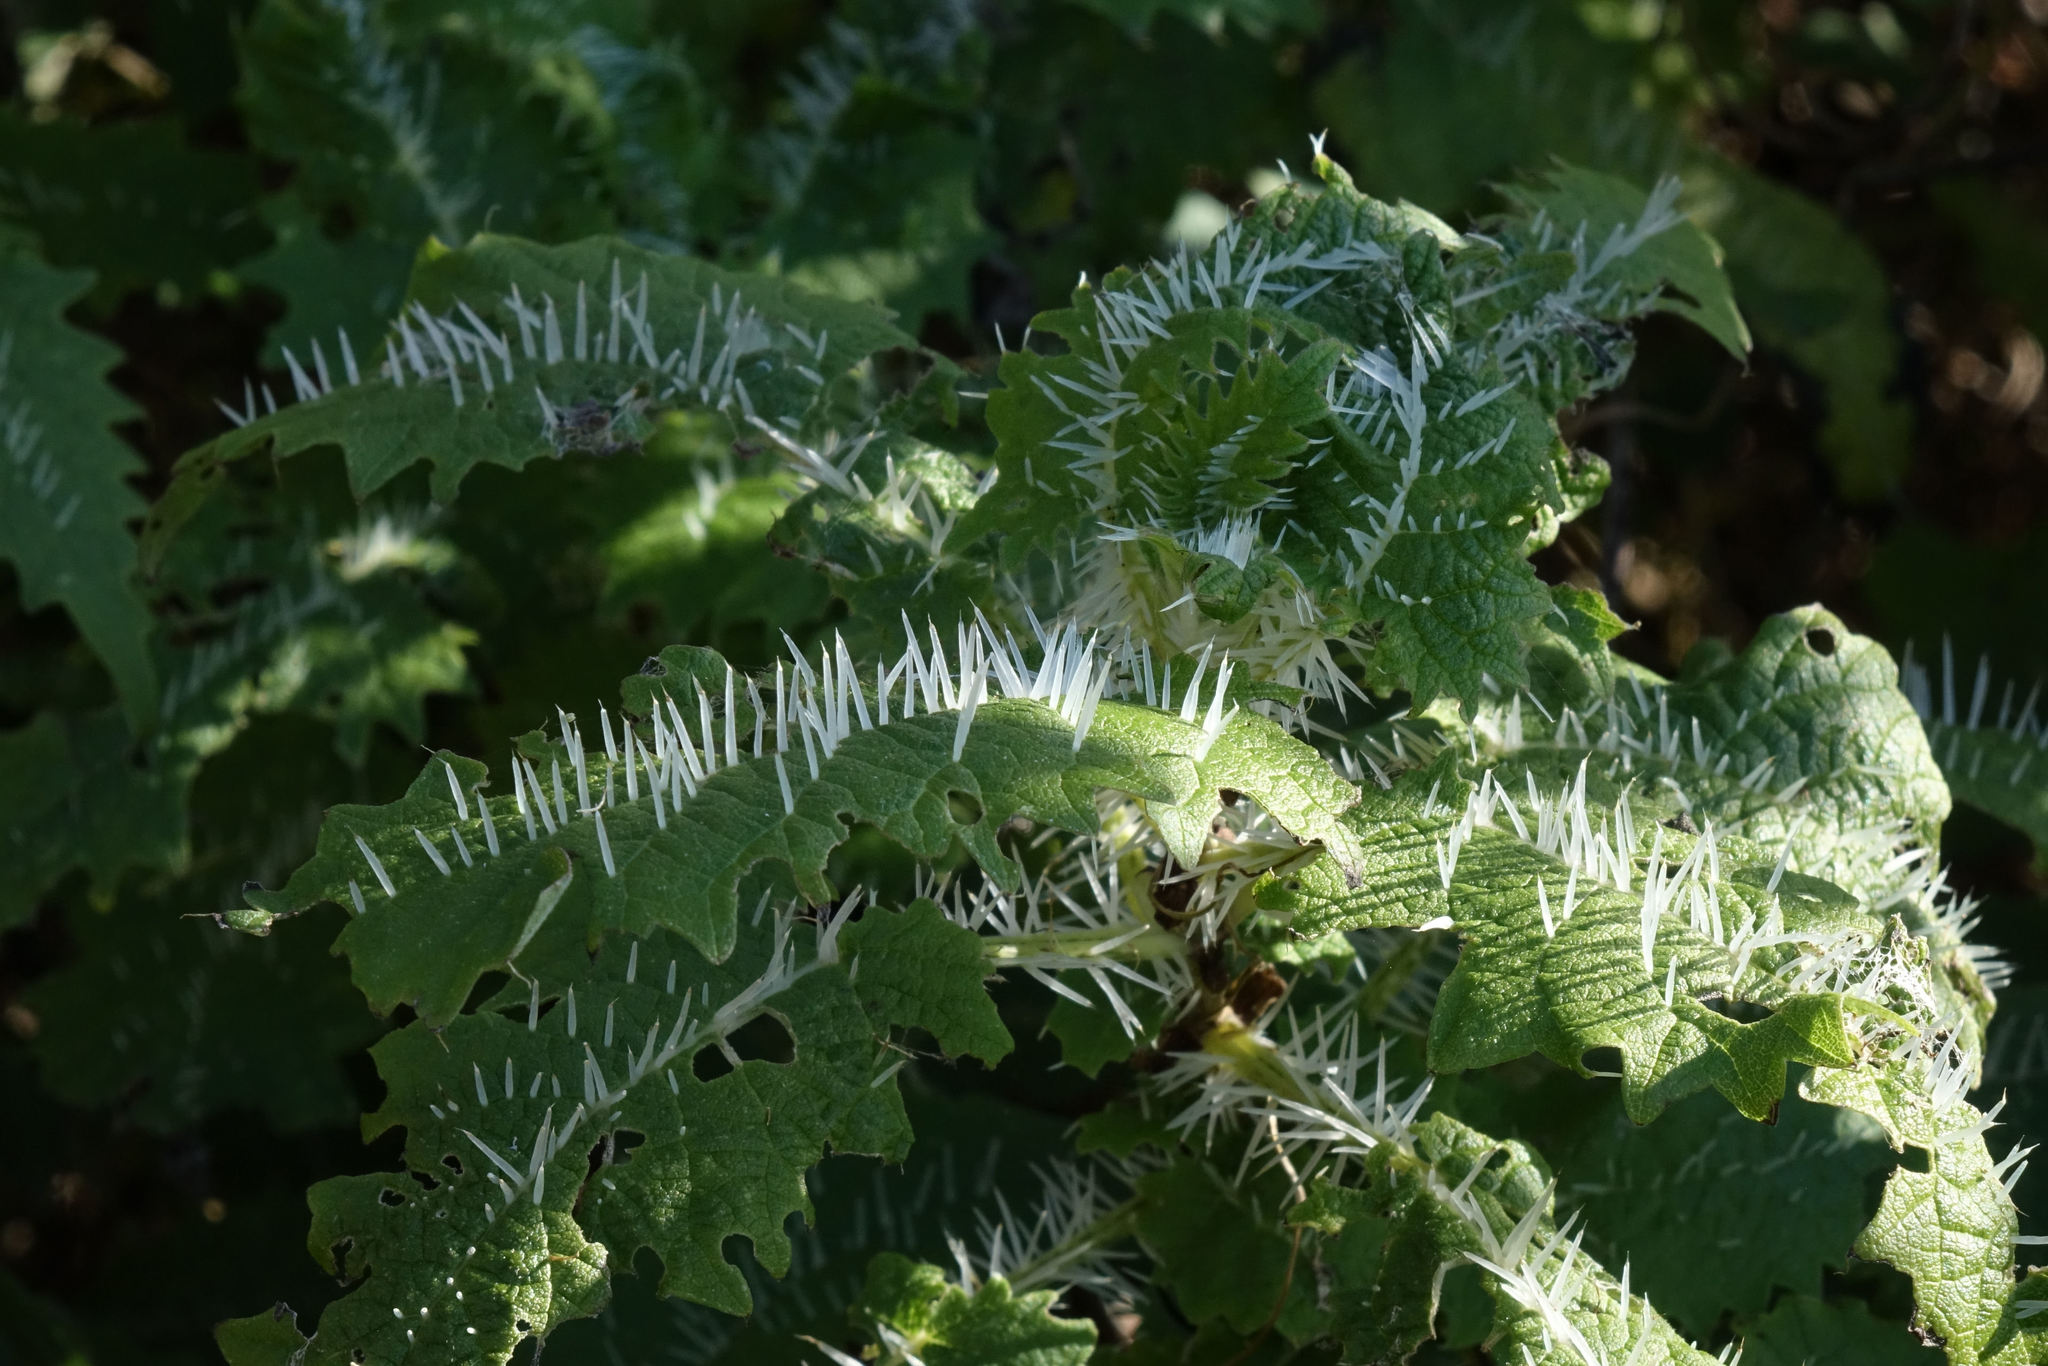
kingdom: Plantae
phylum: Tracheophyta
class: Magnoliopsida
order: Rosales
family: Urticaceae
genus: Urtica
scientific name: Urtica ferox
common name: Tree nettle
